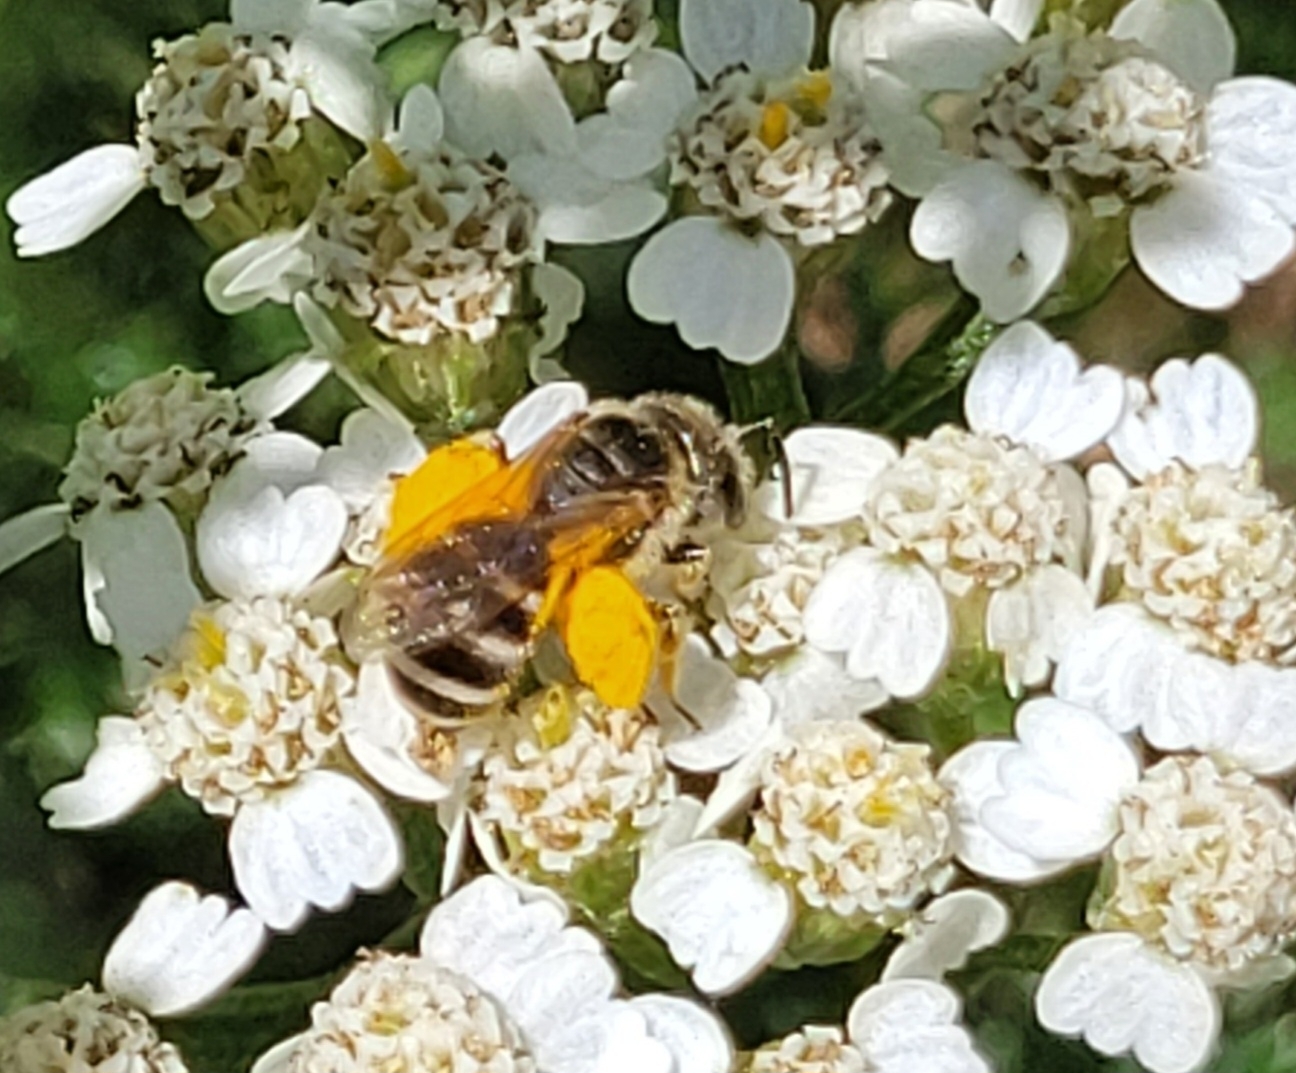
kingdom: Animalia
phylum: Arthropoda
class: Insecta
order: Hymenoptera
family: Halictidae
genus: Halictus
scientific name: Halictus ligatus
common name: Ligated furrow bee
